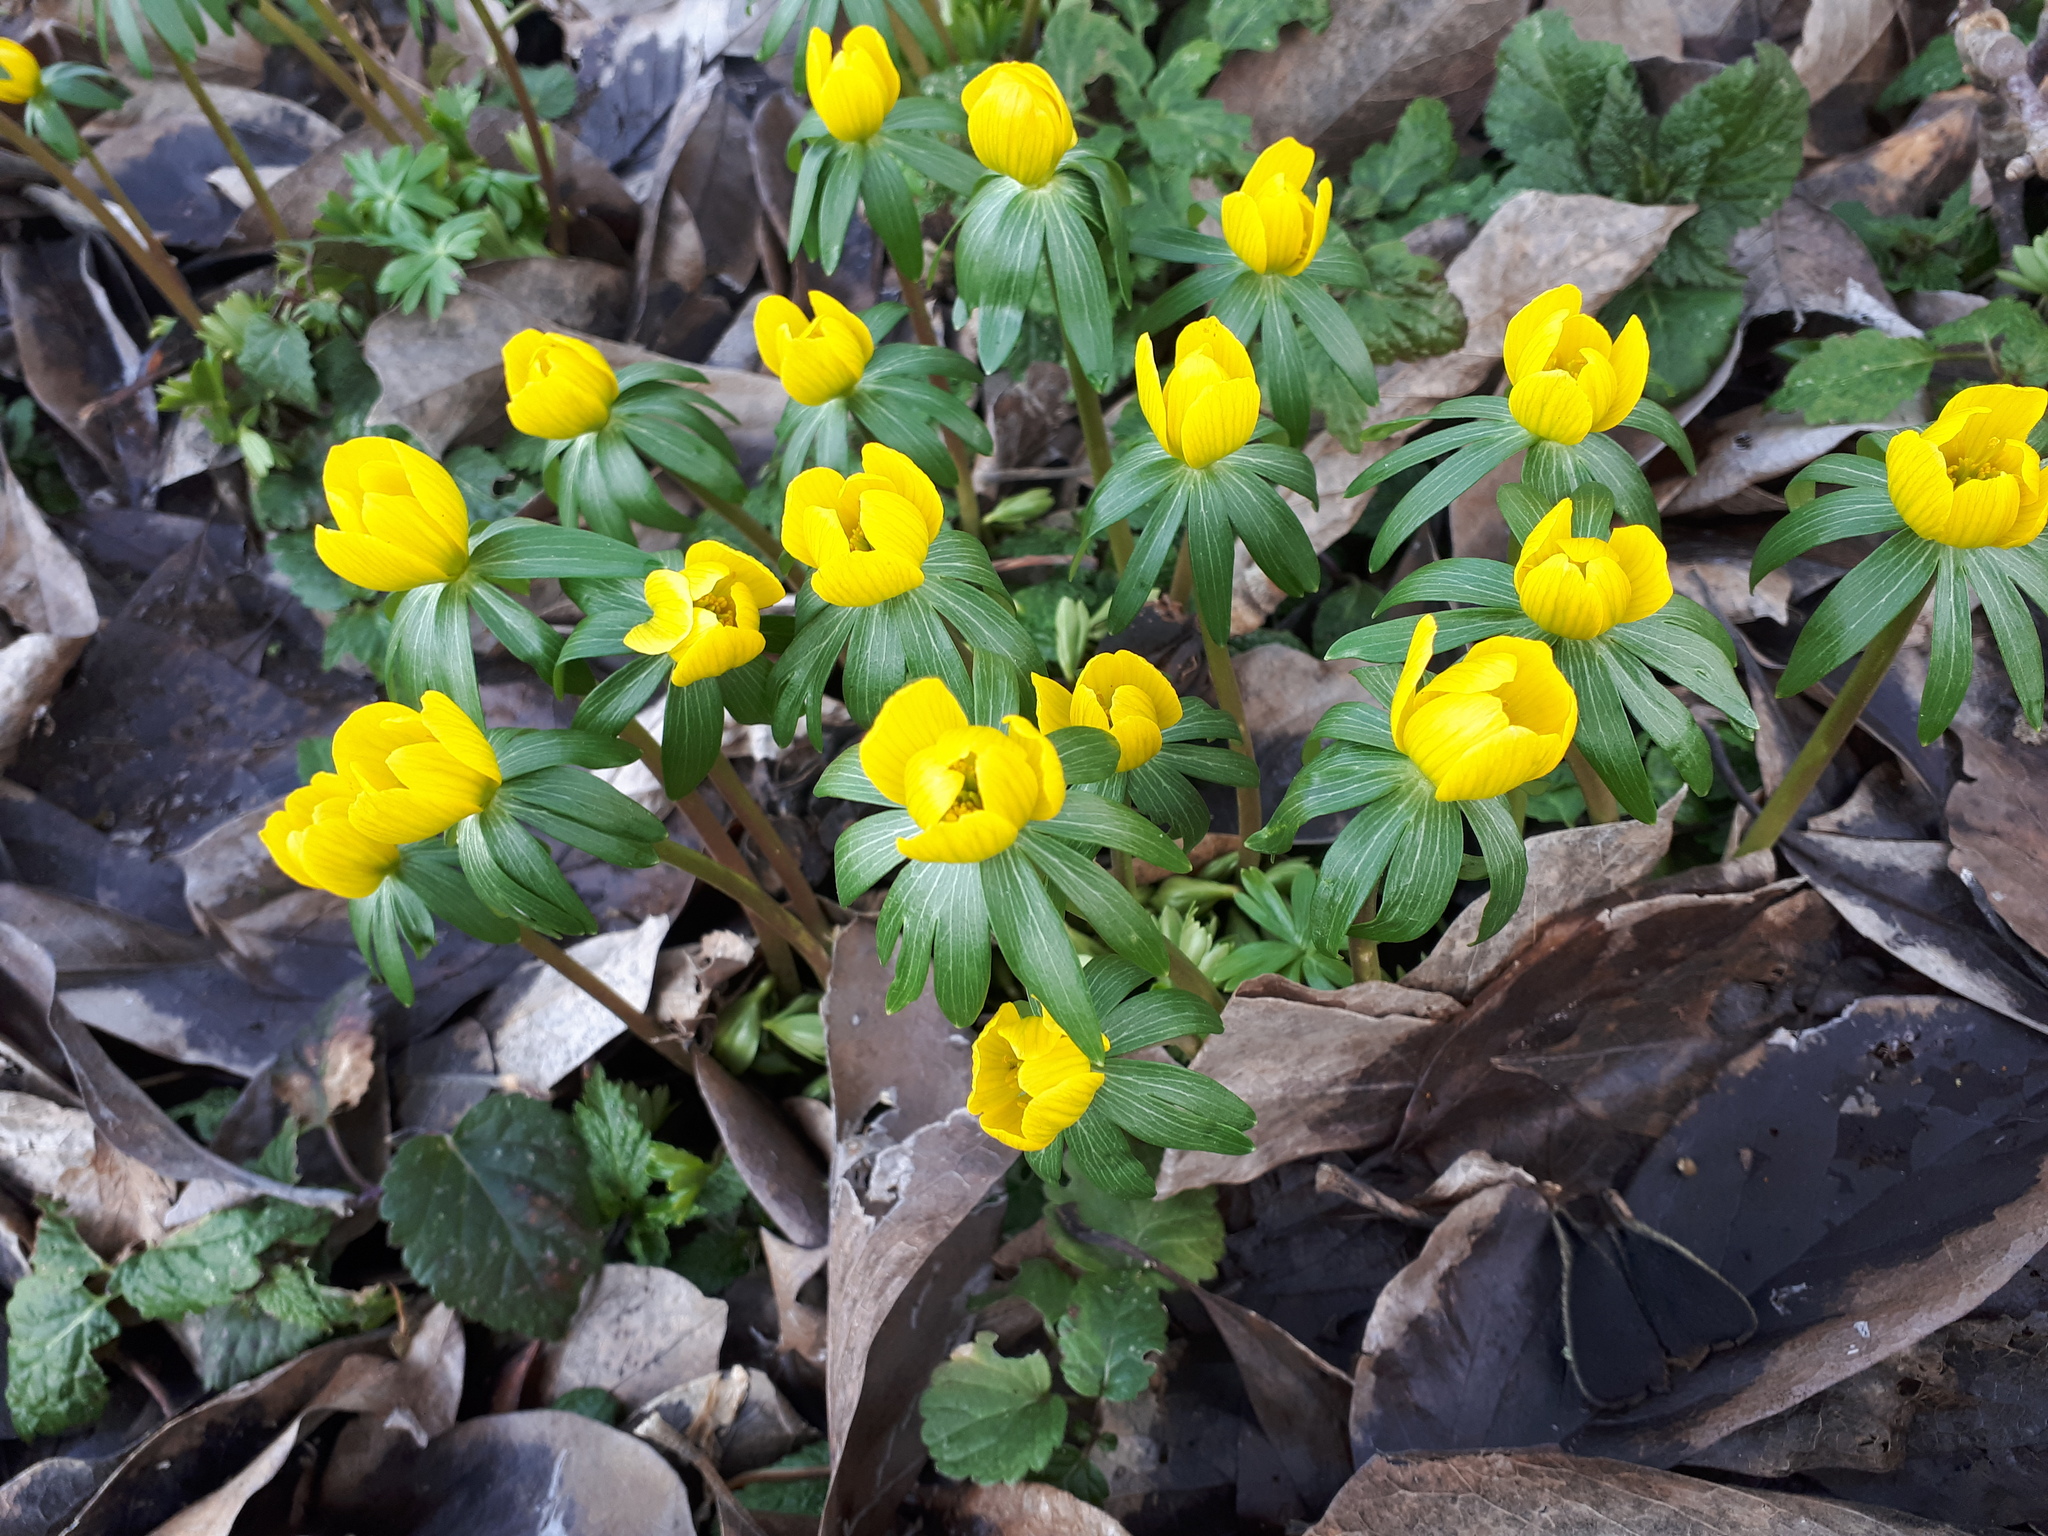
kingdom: Plantae
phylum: Tracheophyta
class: Magnoliopsida
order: Ranunculales
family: Ranunculaceae
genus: Eranthis
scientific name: Eranthis hyemalis
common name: Winter aconite
